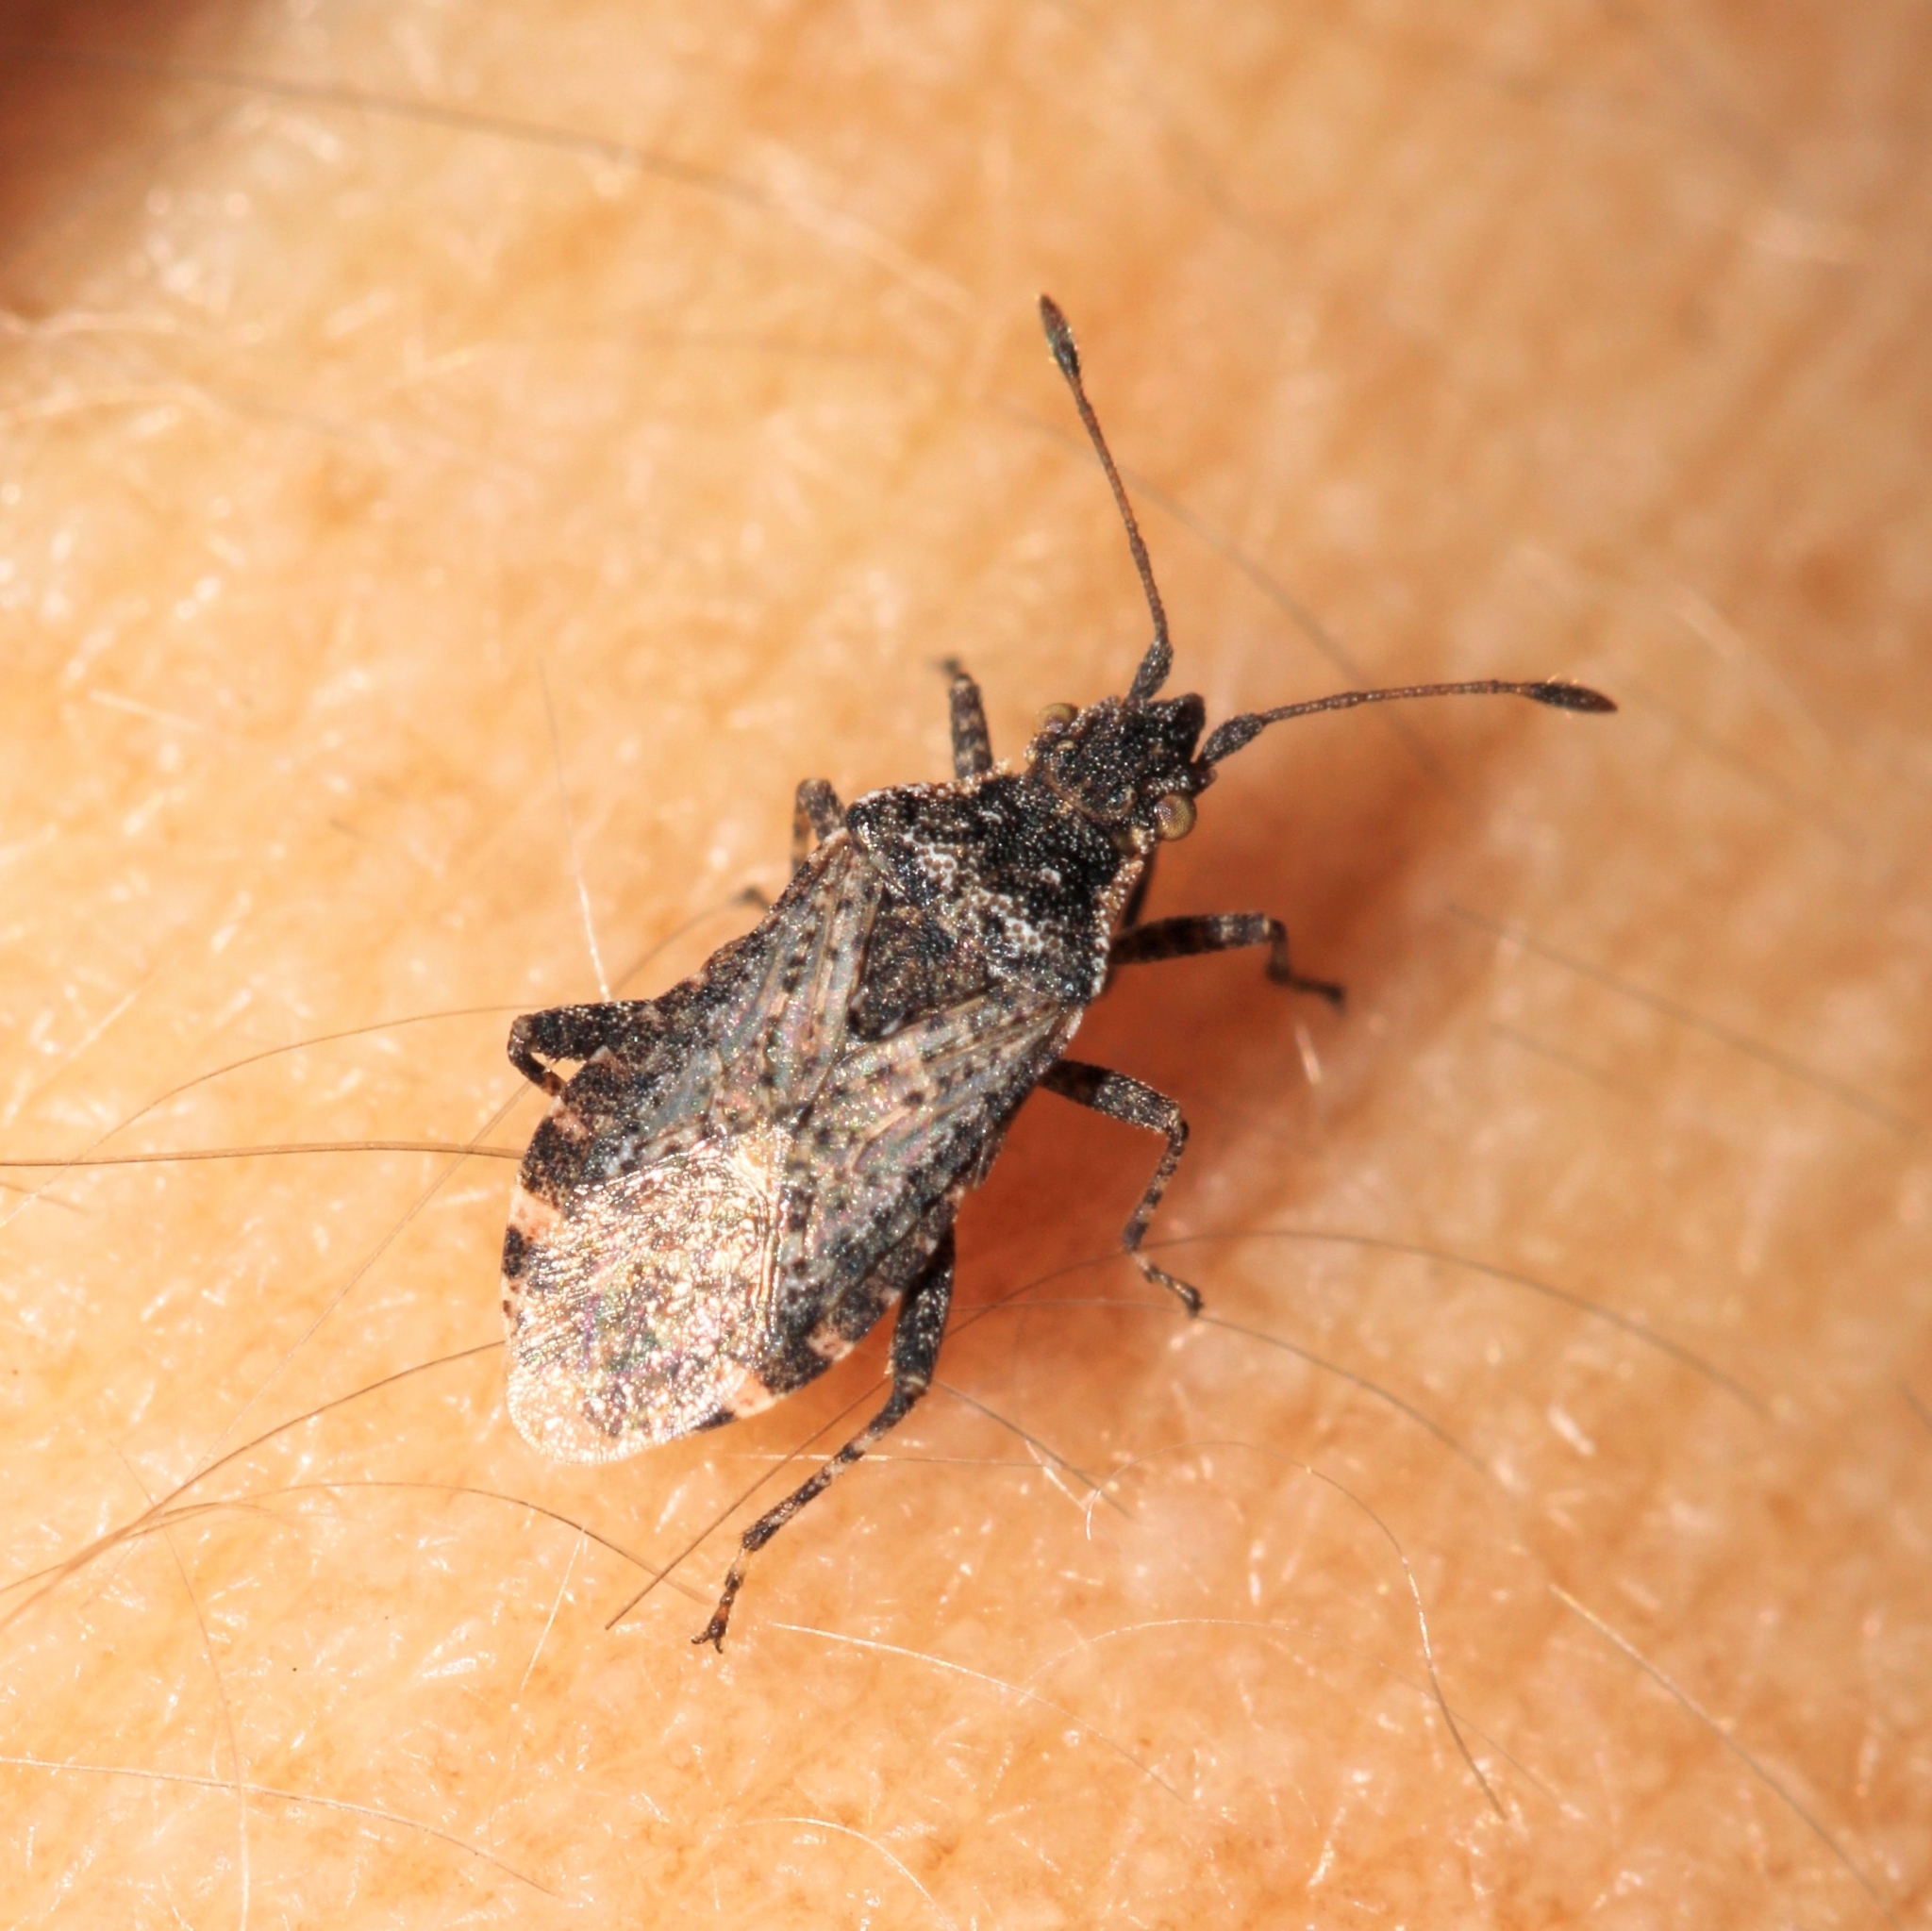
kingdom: Animalia
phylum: Arthropoda
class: Insecta
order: Hemiptera
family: Rhopalidae
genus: Aufeius
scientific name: Aufeius impressicollis
